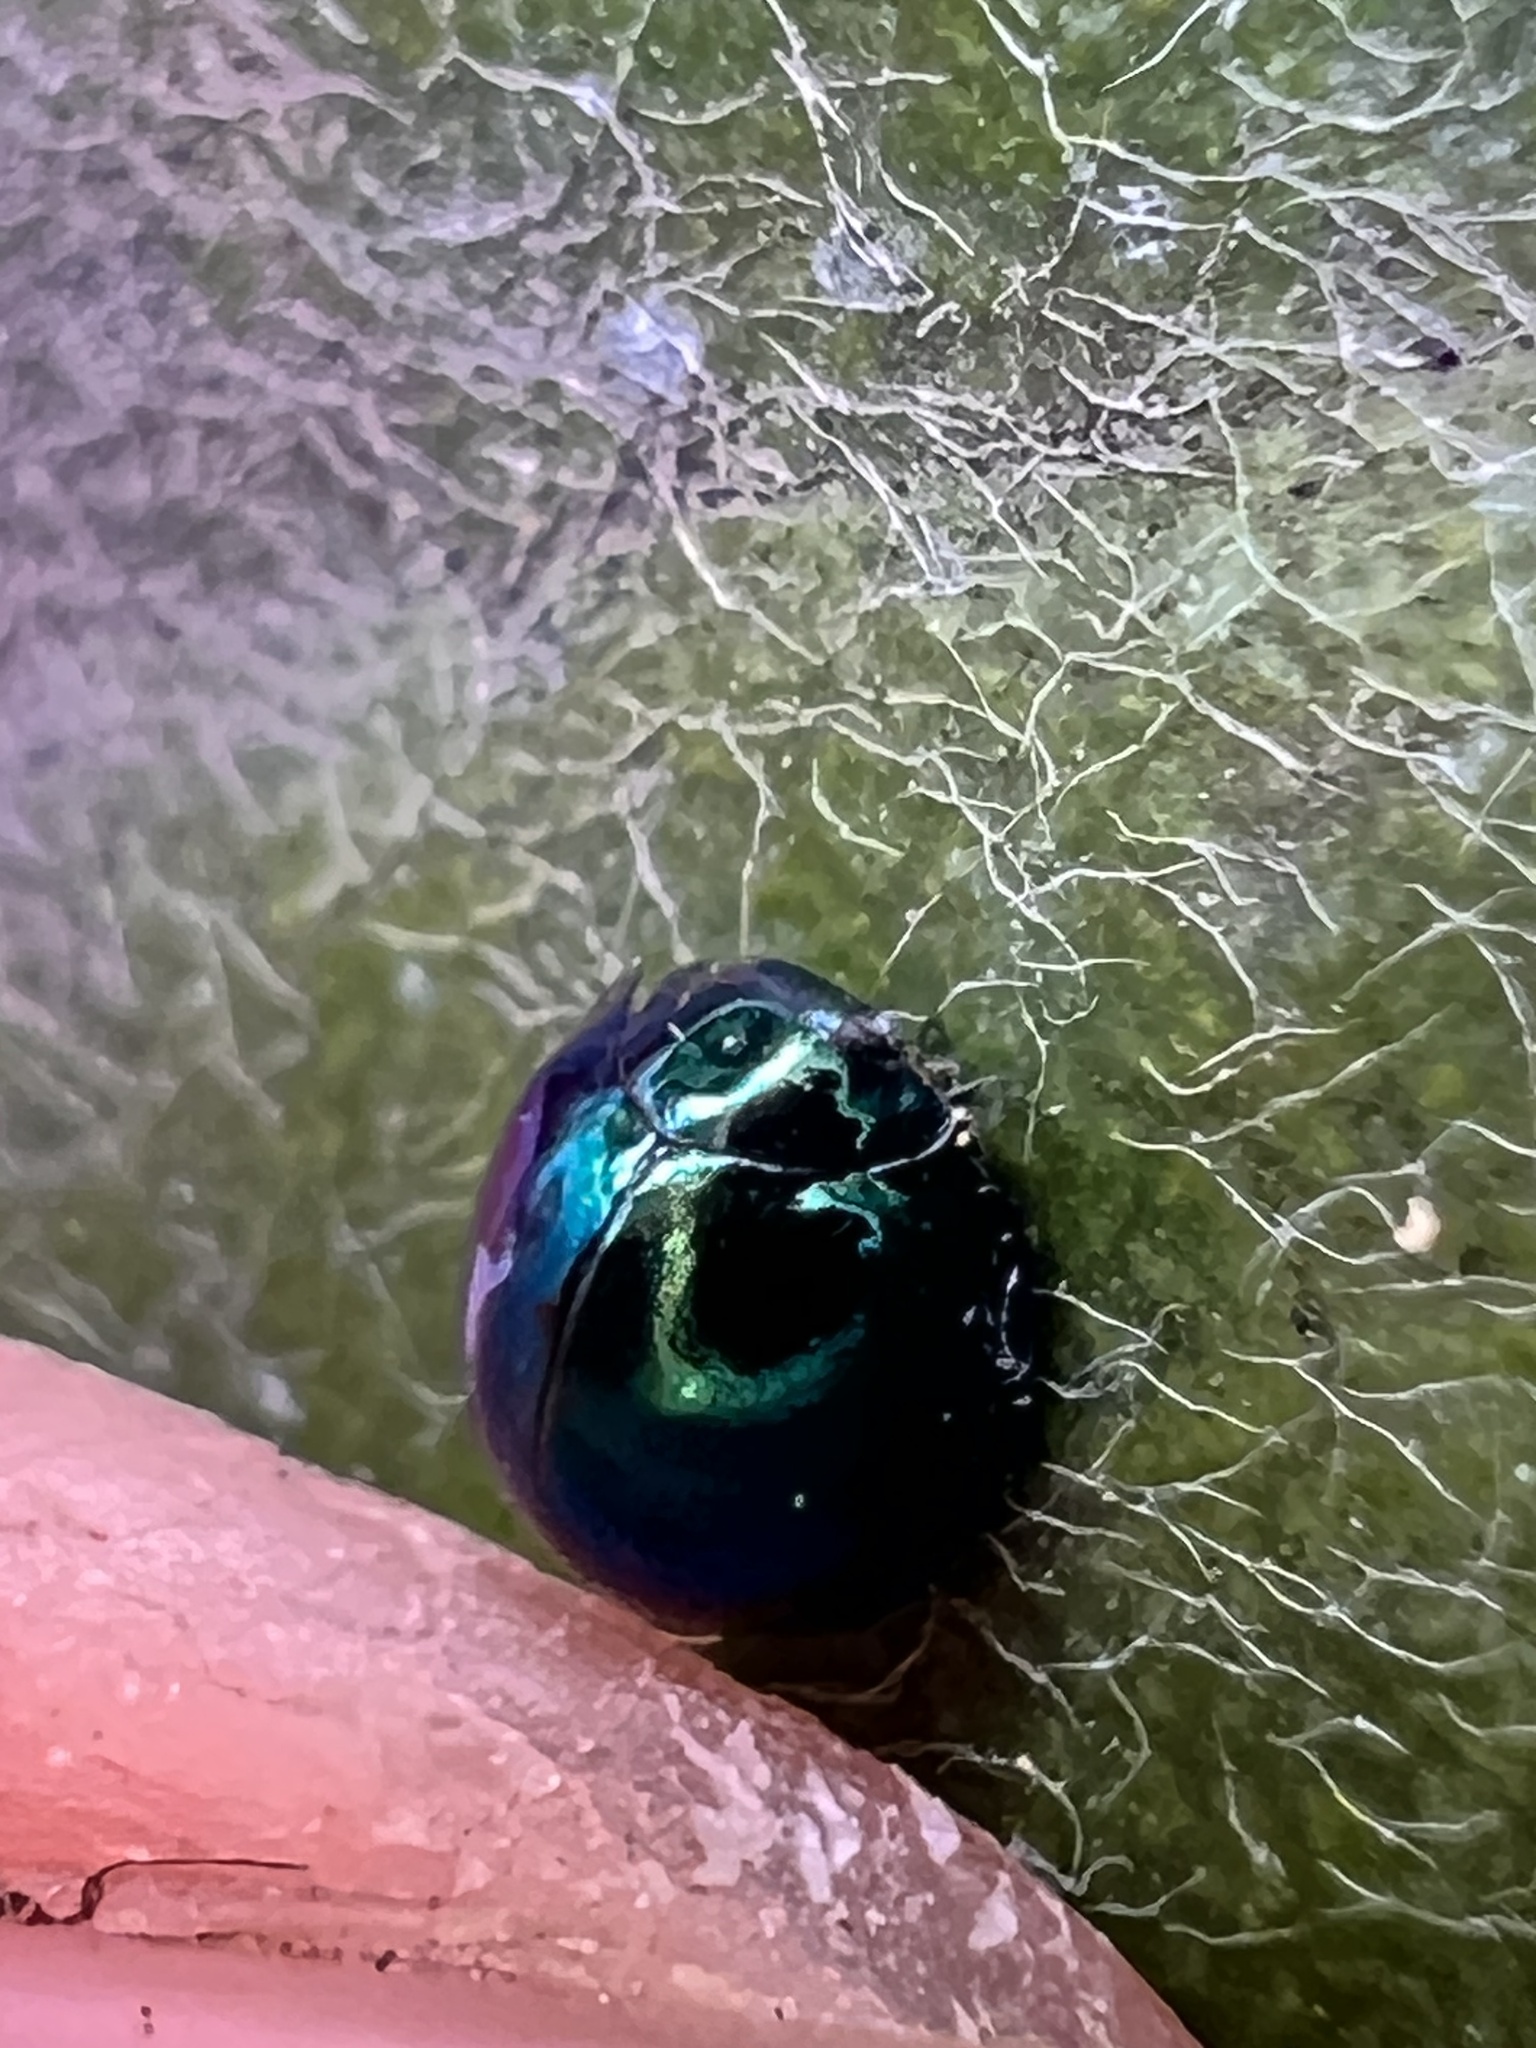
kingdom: Animalia
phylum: Arthropoda
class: Insecta
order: Coleoptera
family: Coccinellidae
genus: Halmus
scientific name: Halmus chalybeus
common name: Steel blue ladybird beetle
